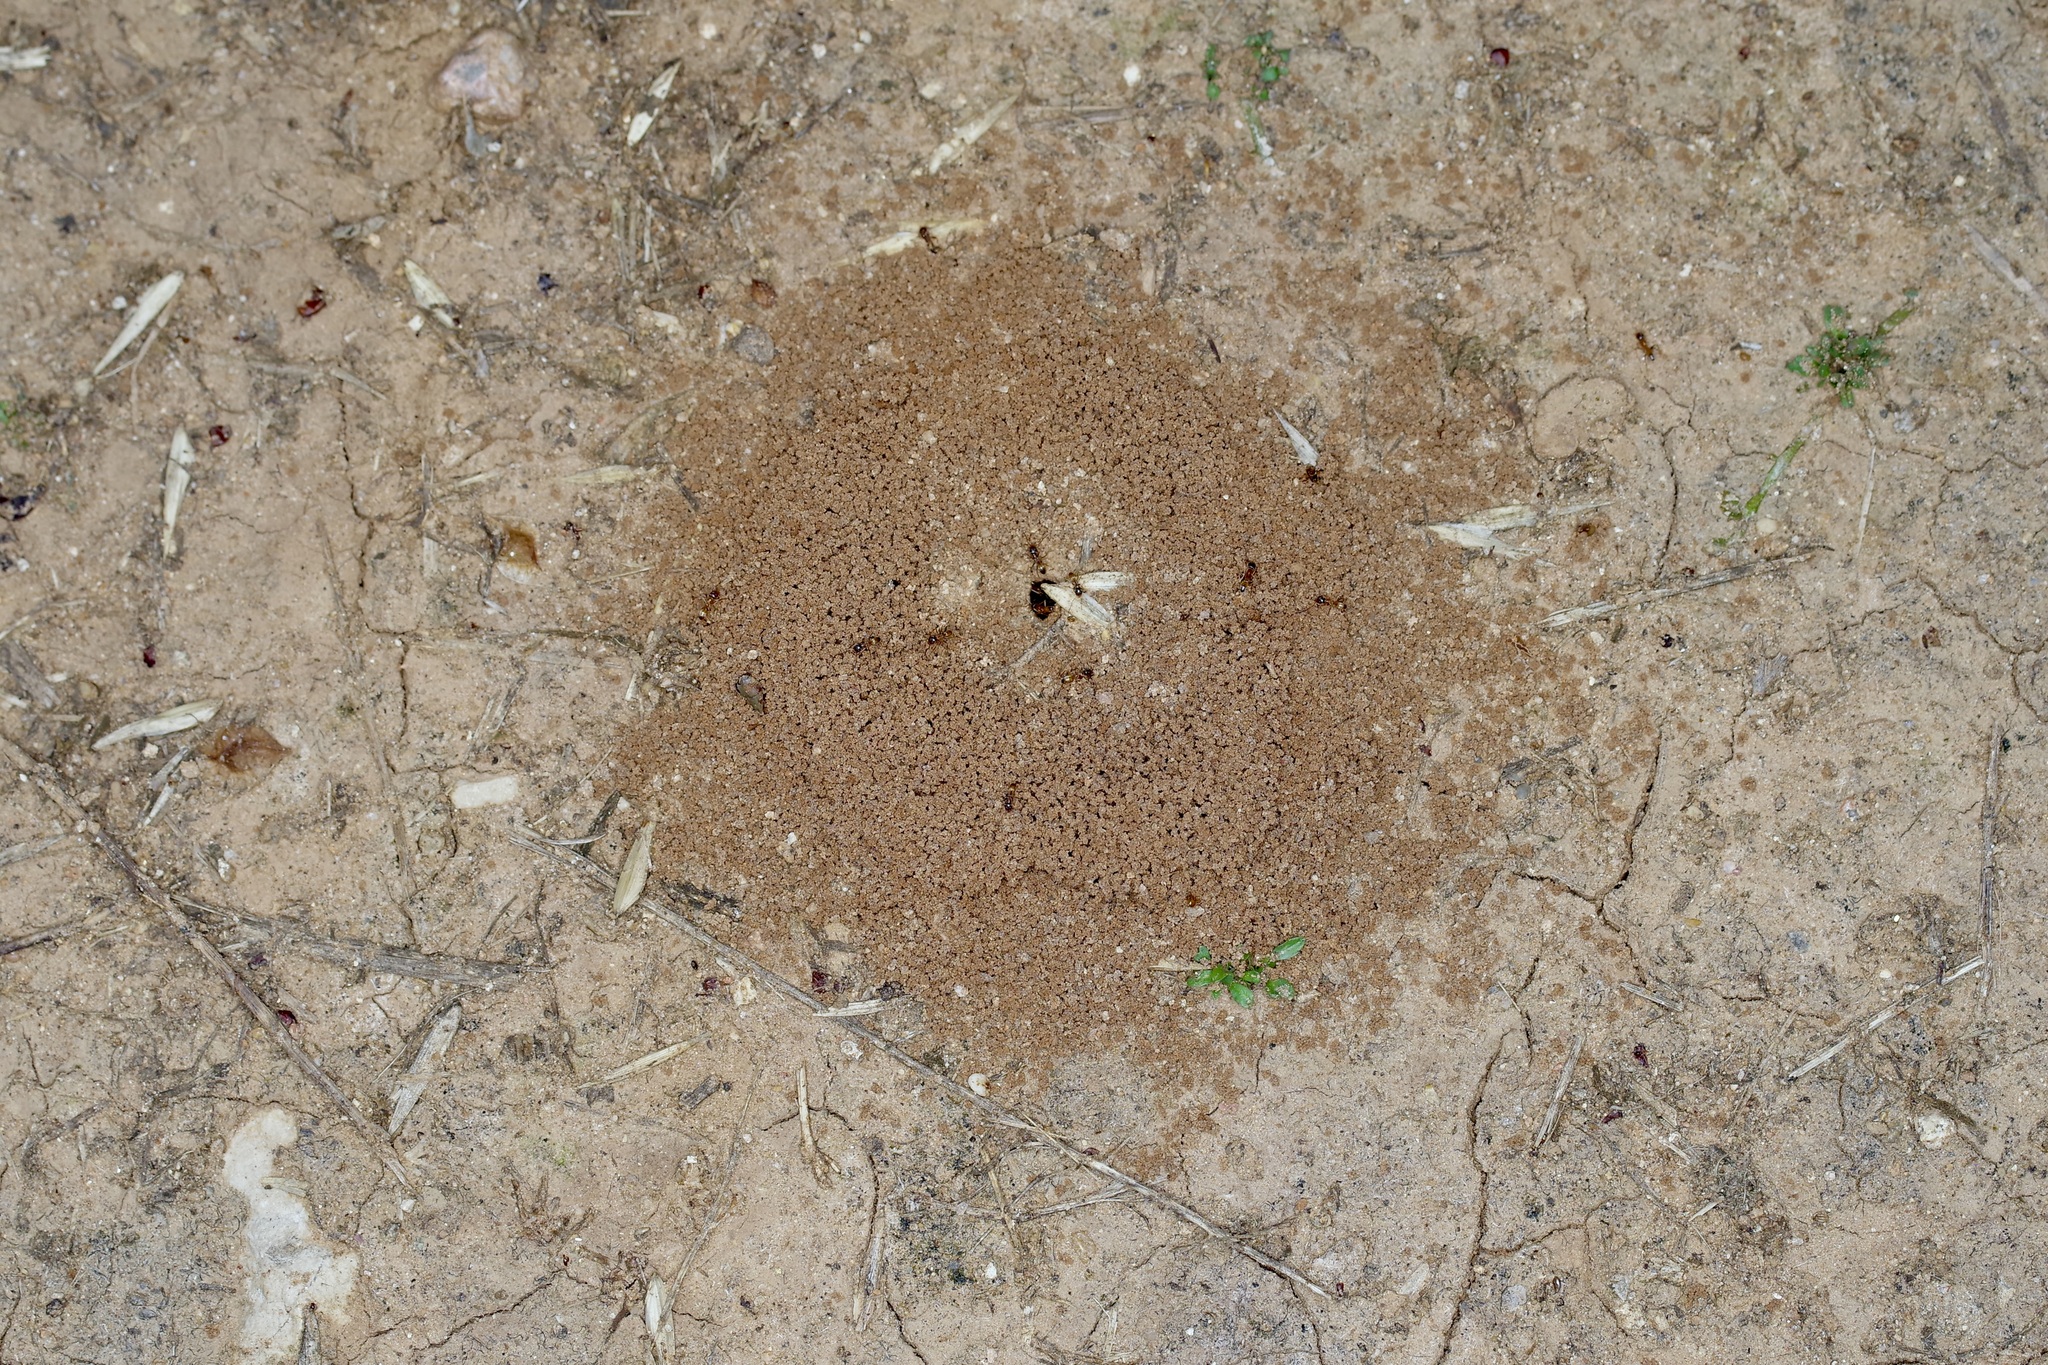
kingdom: Animalia
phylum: Arthropoda
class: Insecta
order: Hymenoptera
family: Formicidae
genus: Dorymyrmex
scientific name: Dorymyrmex flavus
